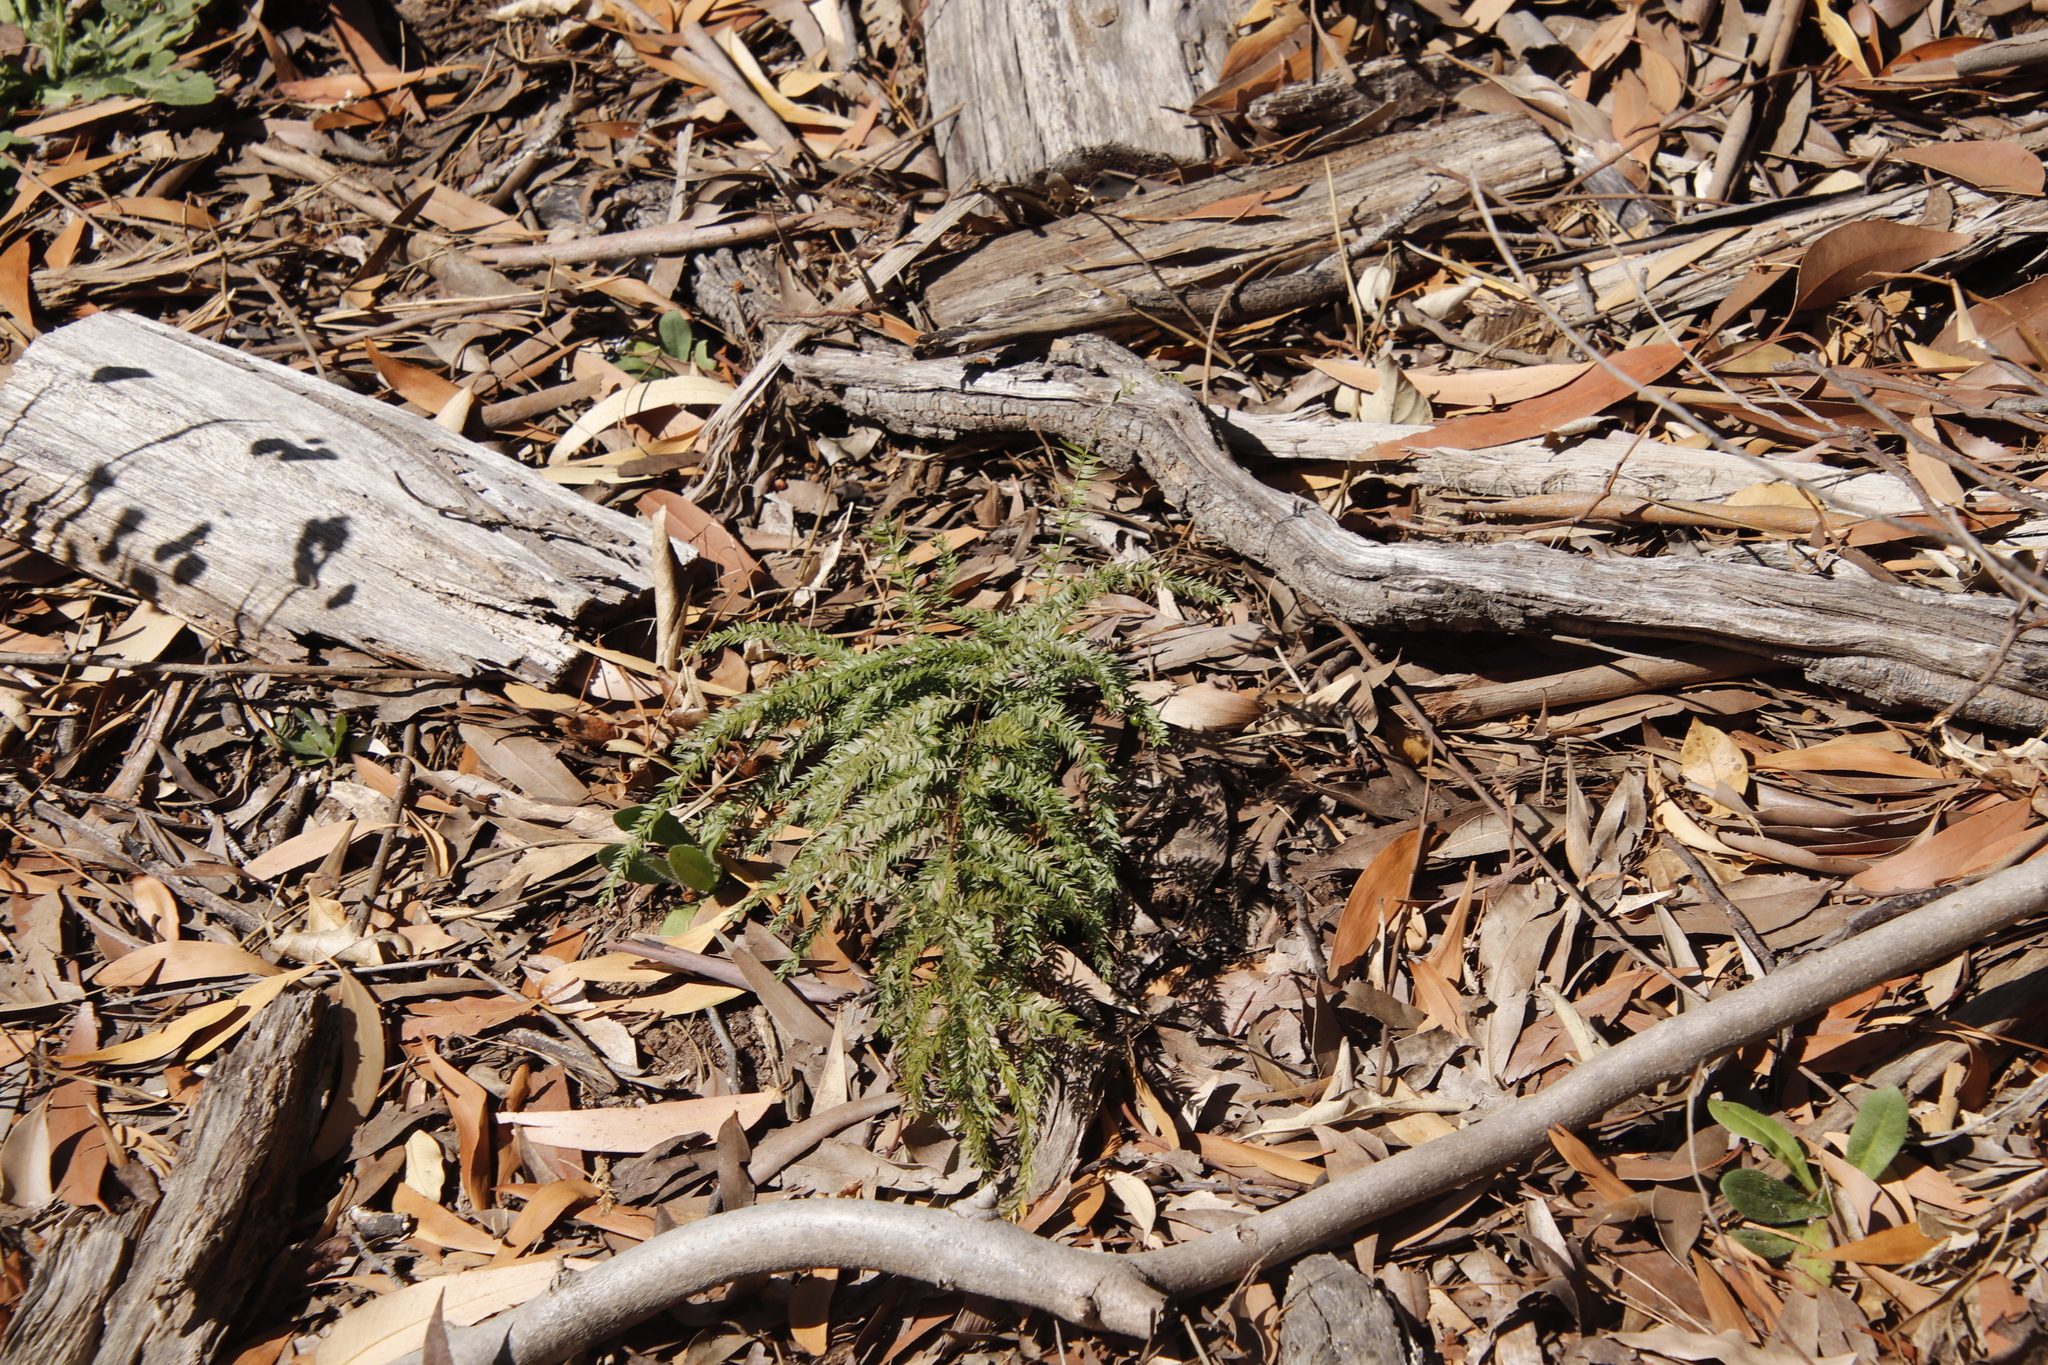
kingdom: Plantae
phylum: Tracheophyta
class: Liliopsida
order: Asparagales
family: Asparagaceae
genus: Asparagus
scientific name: Asparagus scandens
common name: Asparagus-fern
